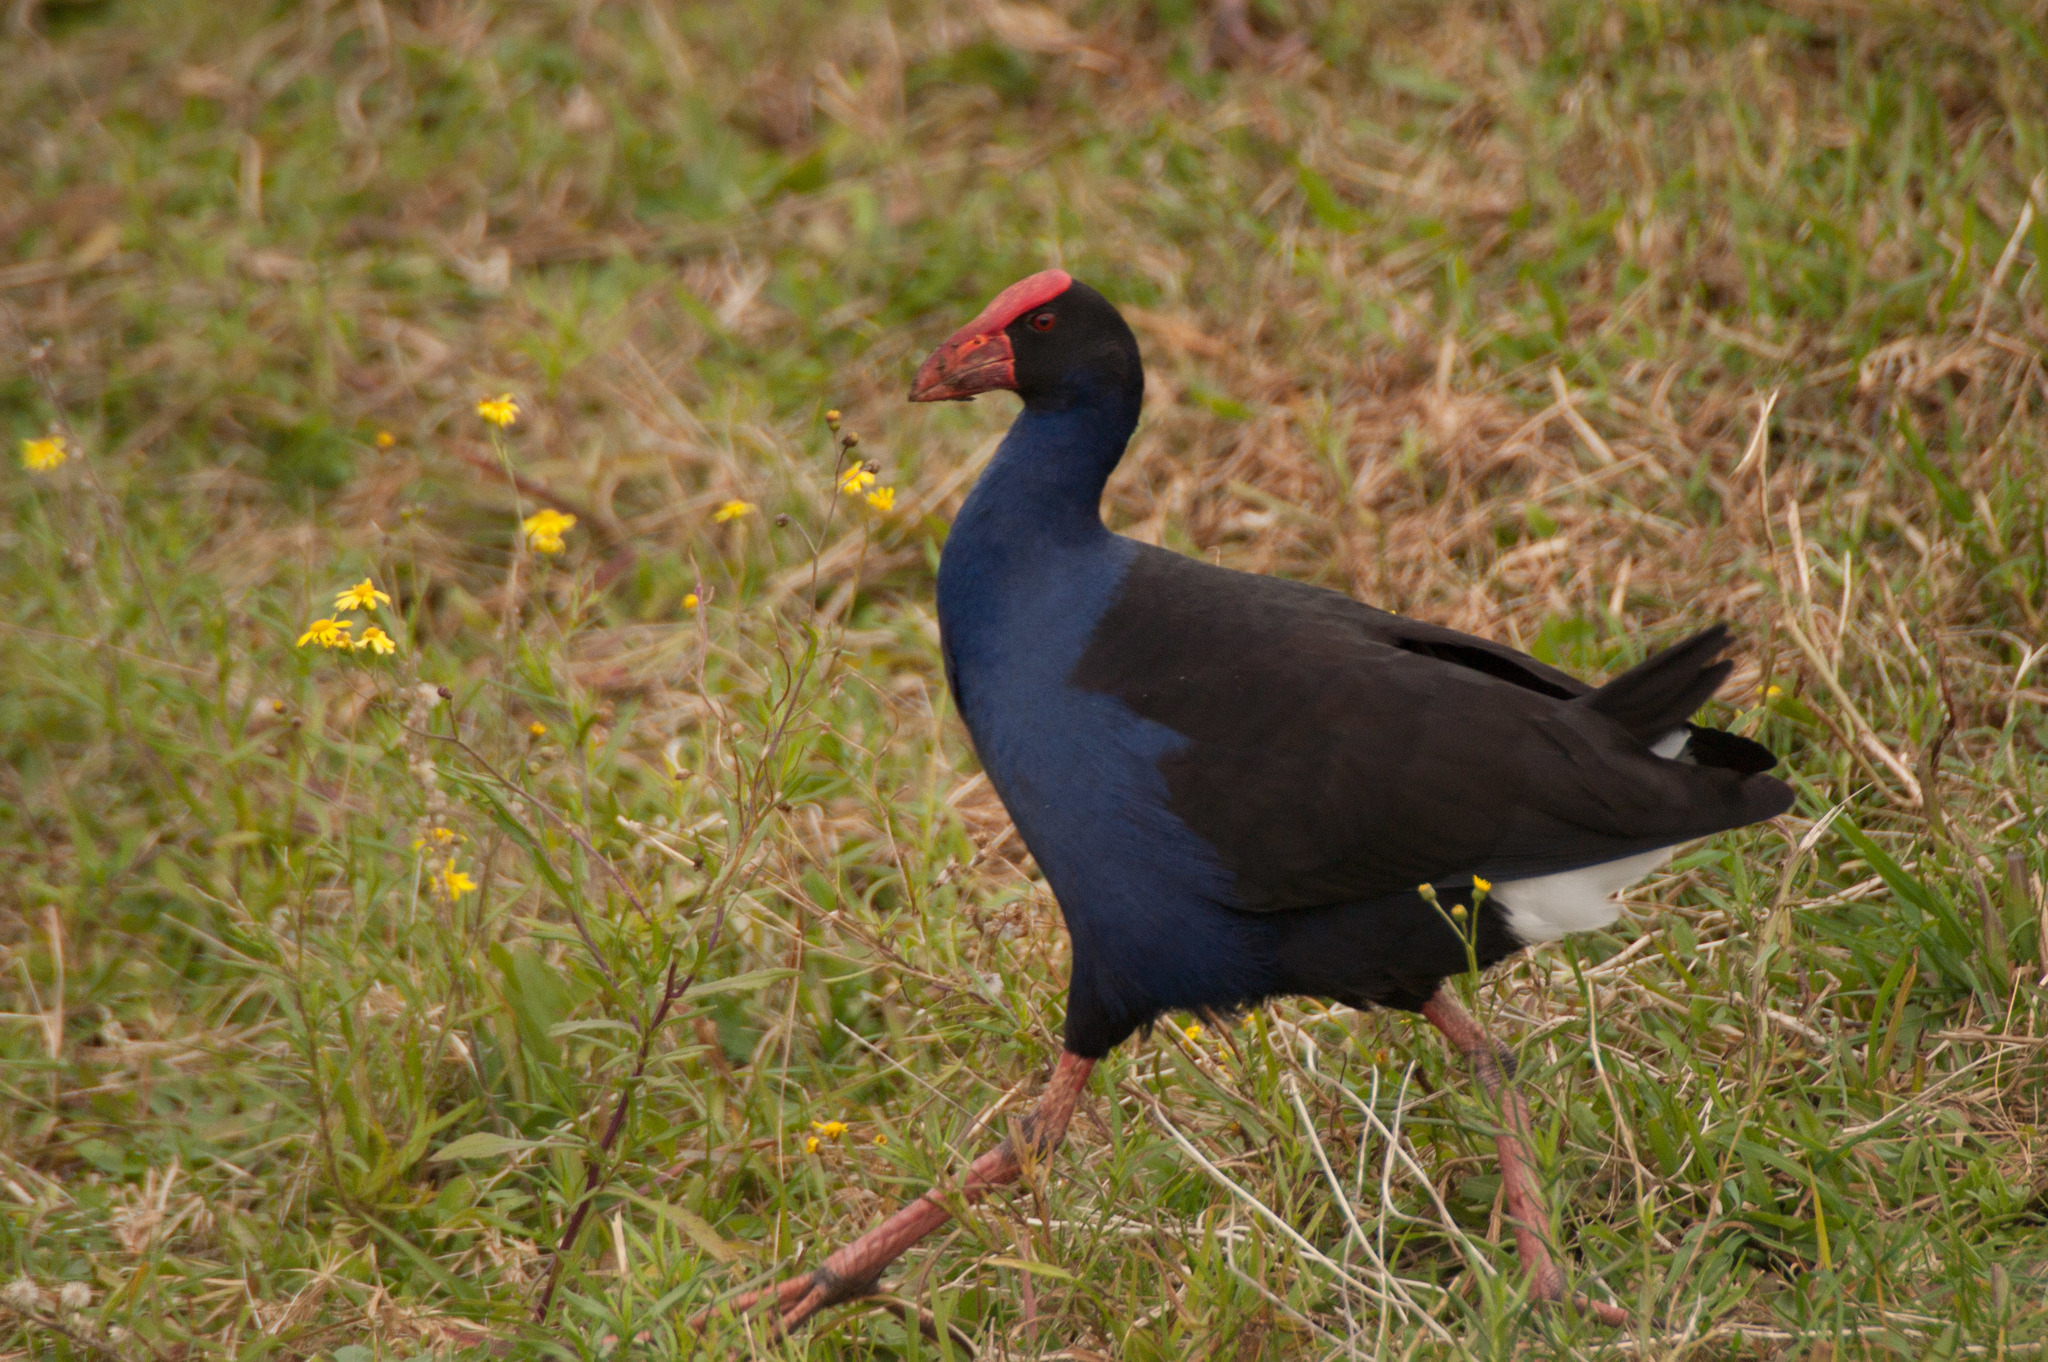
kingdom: Animalia
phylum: Chordata
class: Aves
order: Gruiformes
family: Rallidae
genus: Porphyrio
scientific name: Porphyrio melanotus
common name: Australasian swamphen
